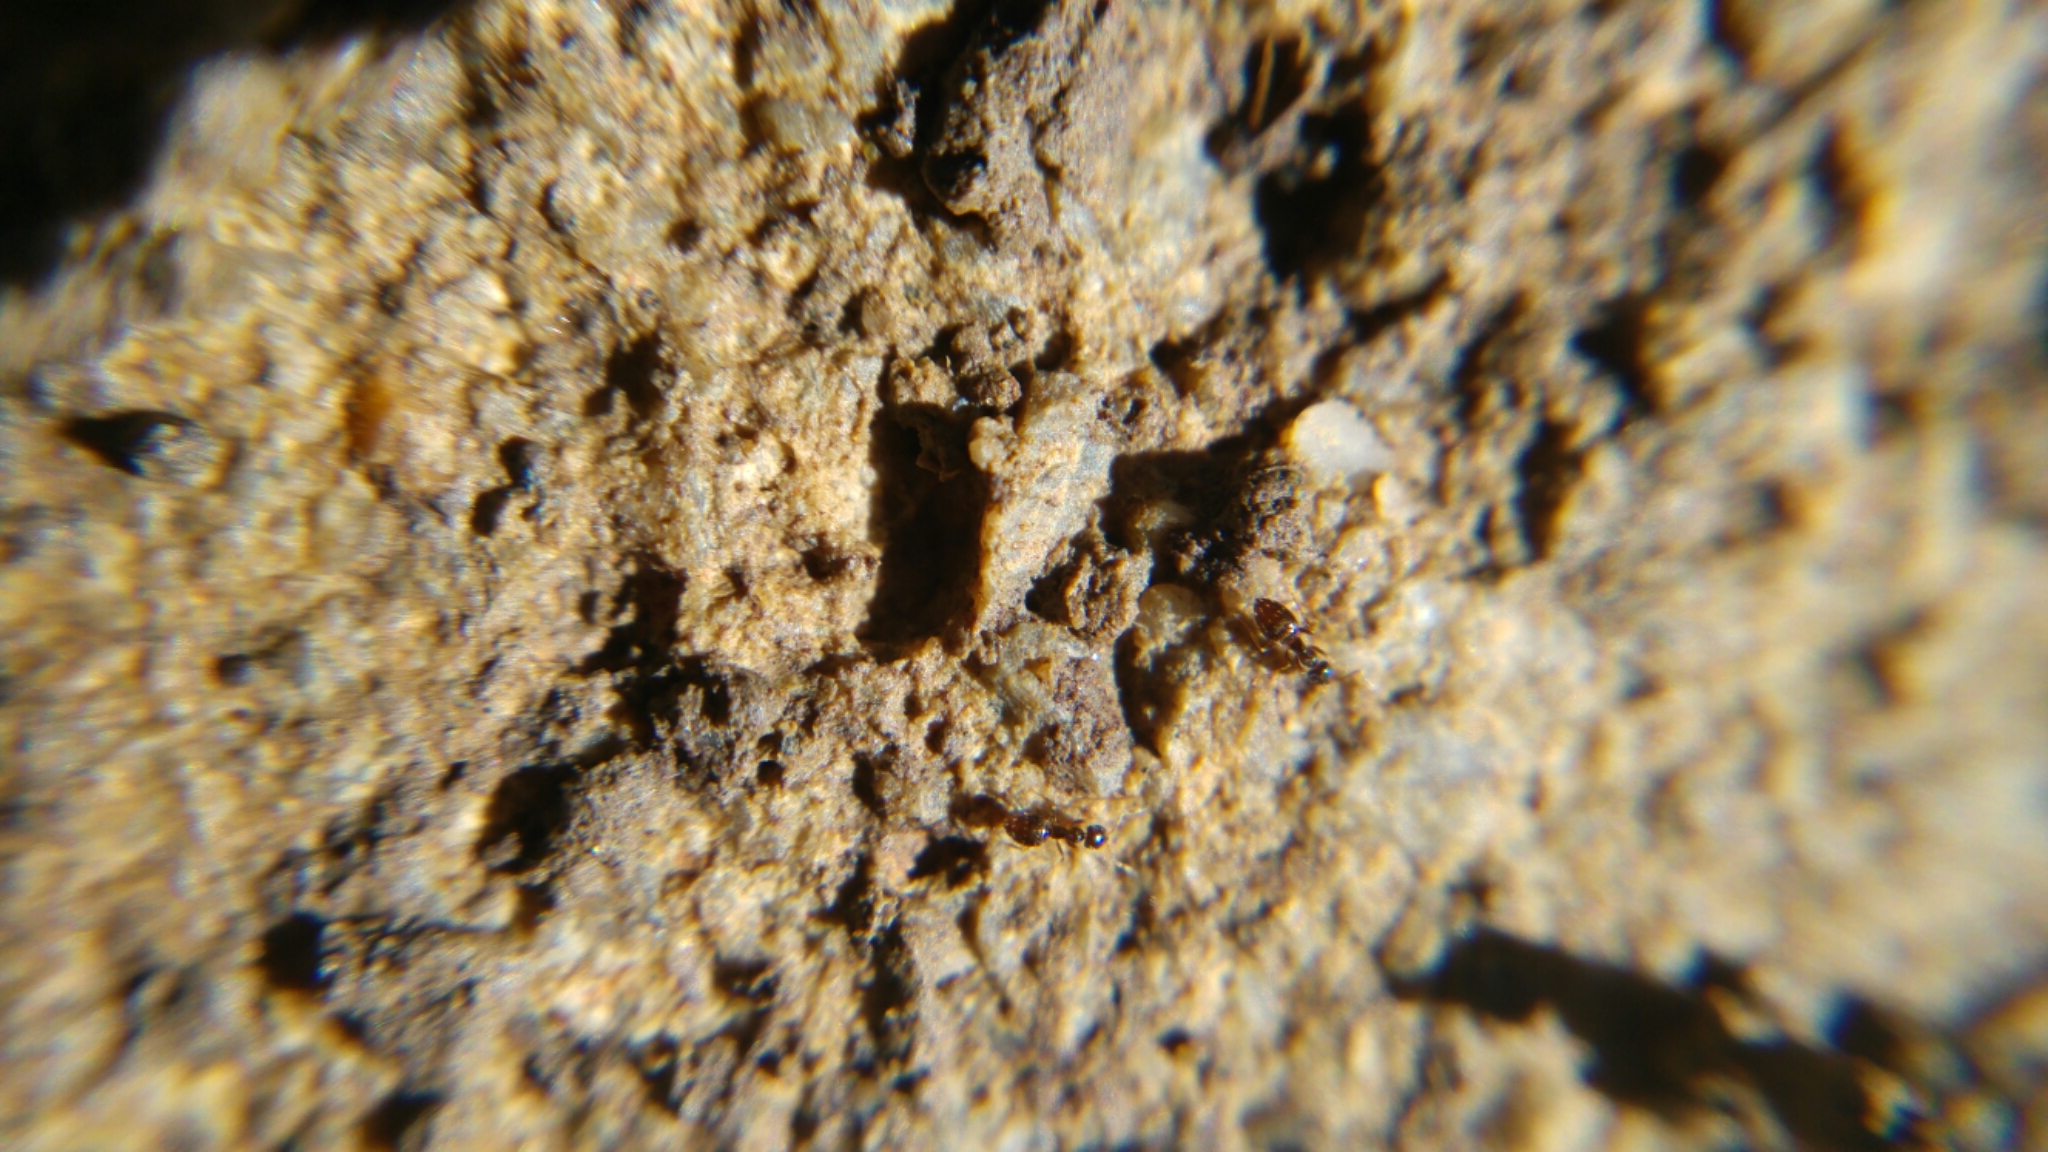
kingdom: Animalia
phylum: Arthropoda
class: Insecta
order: Hymenoptera
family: Formicidae
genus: Plagiolepis
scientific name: Plagiolepis pygmaea
